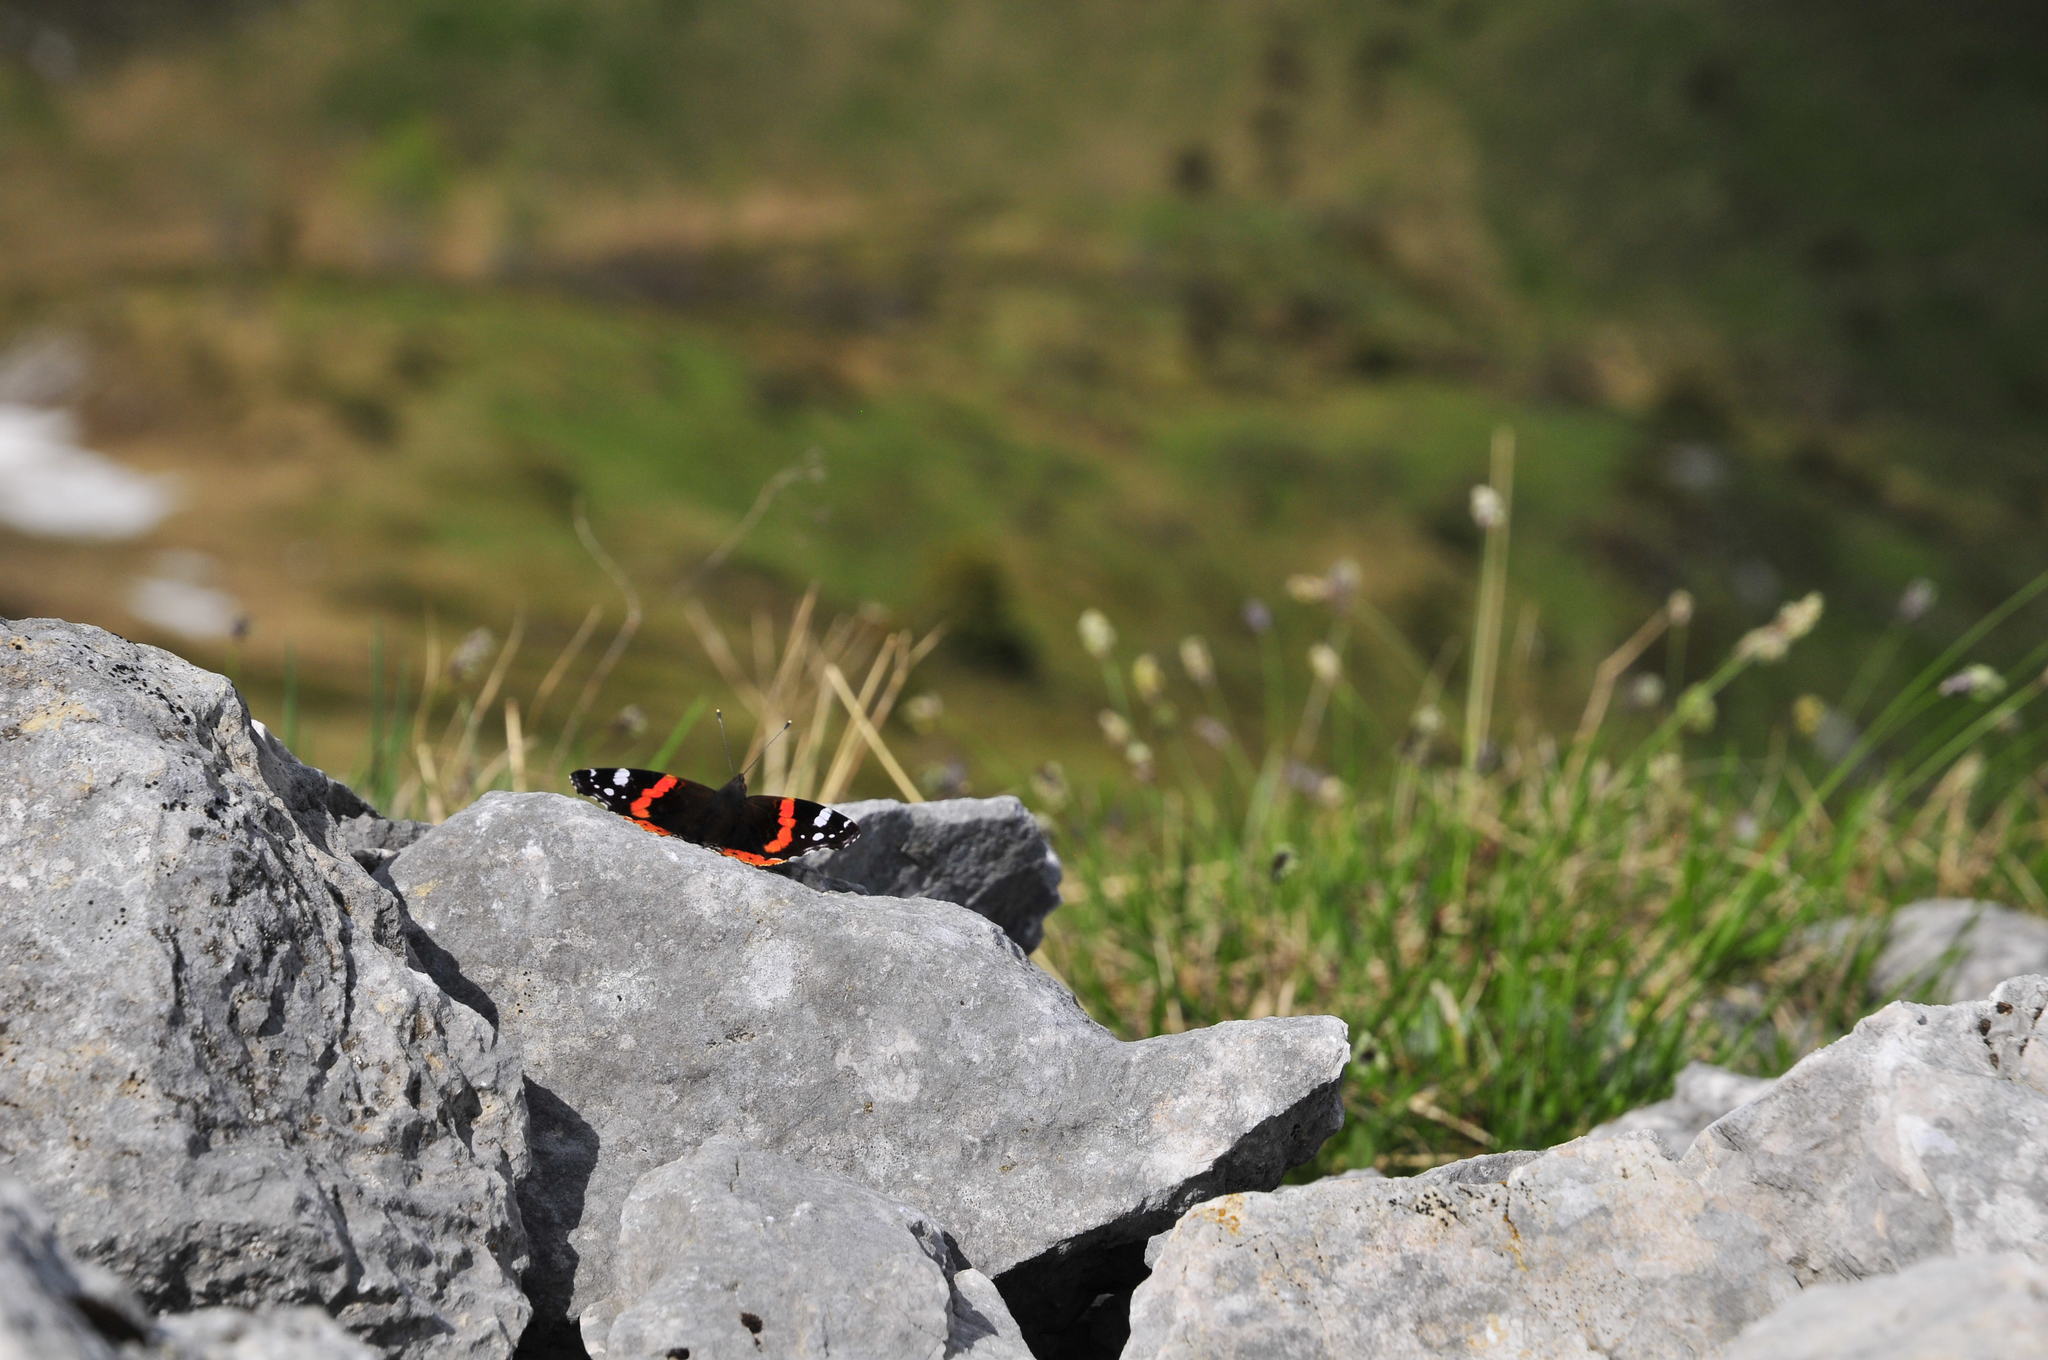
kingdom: Animalia
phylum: Arthropoda
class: Insecta
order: Lepidoptera
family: Nymphalidae
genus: Vanessa
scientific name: Vanessa atalanta
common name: Red admiral
